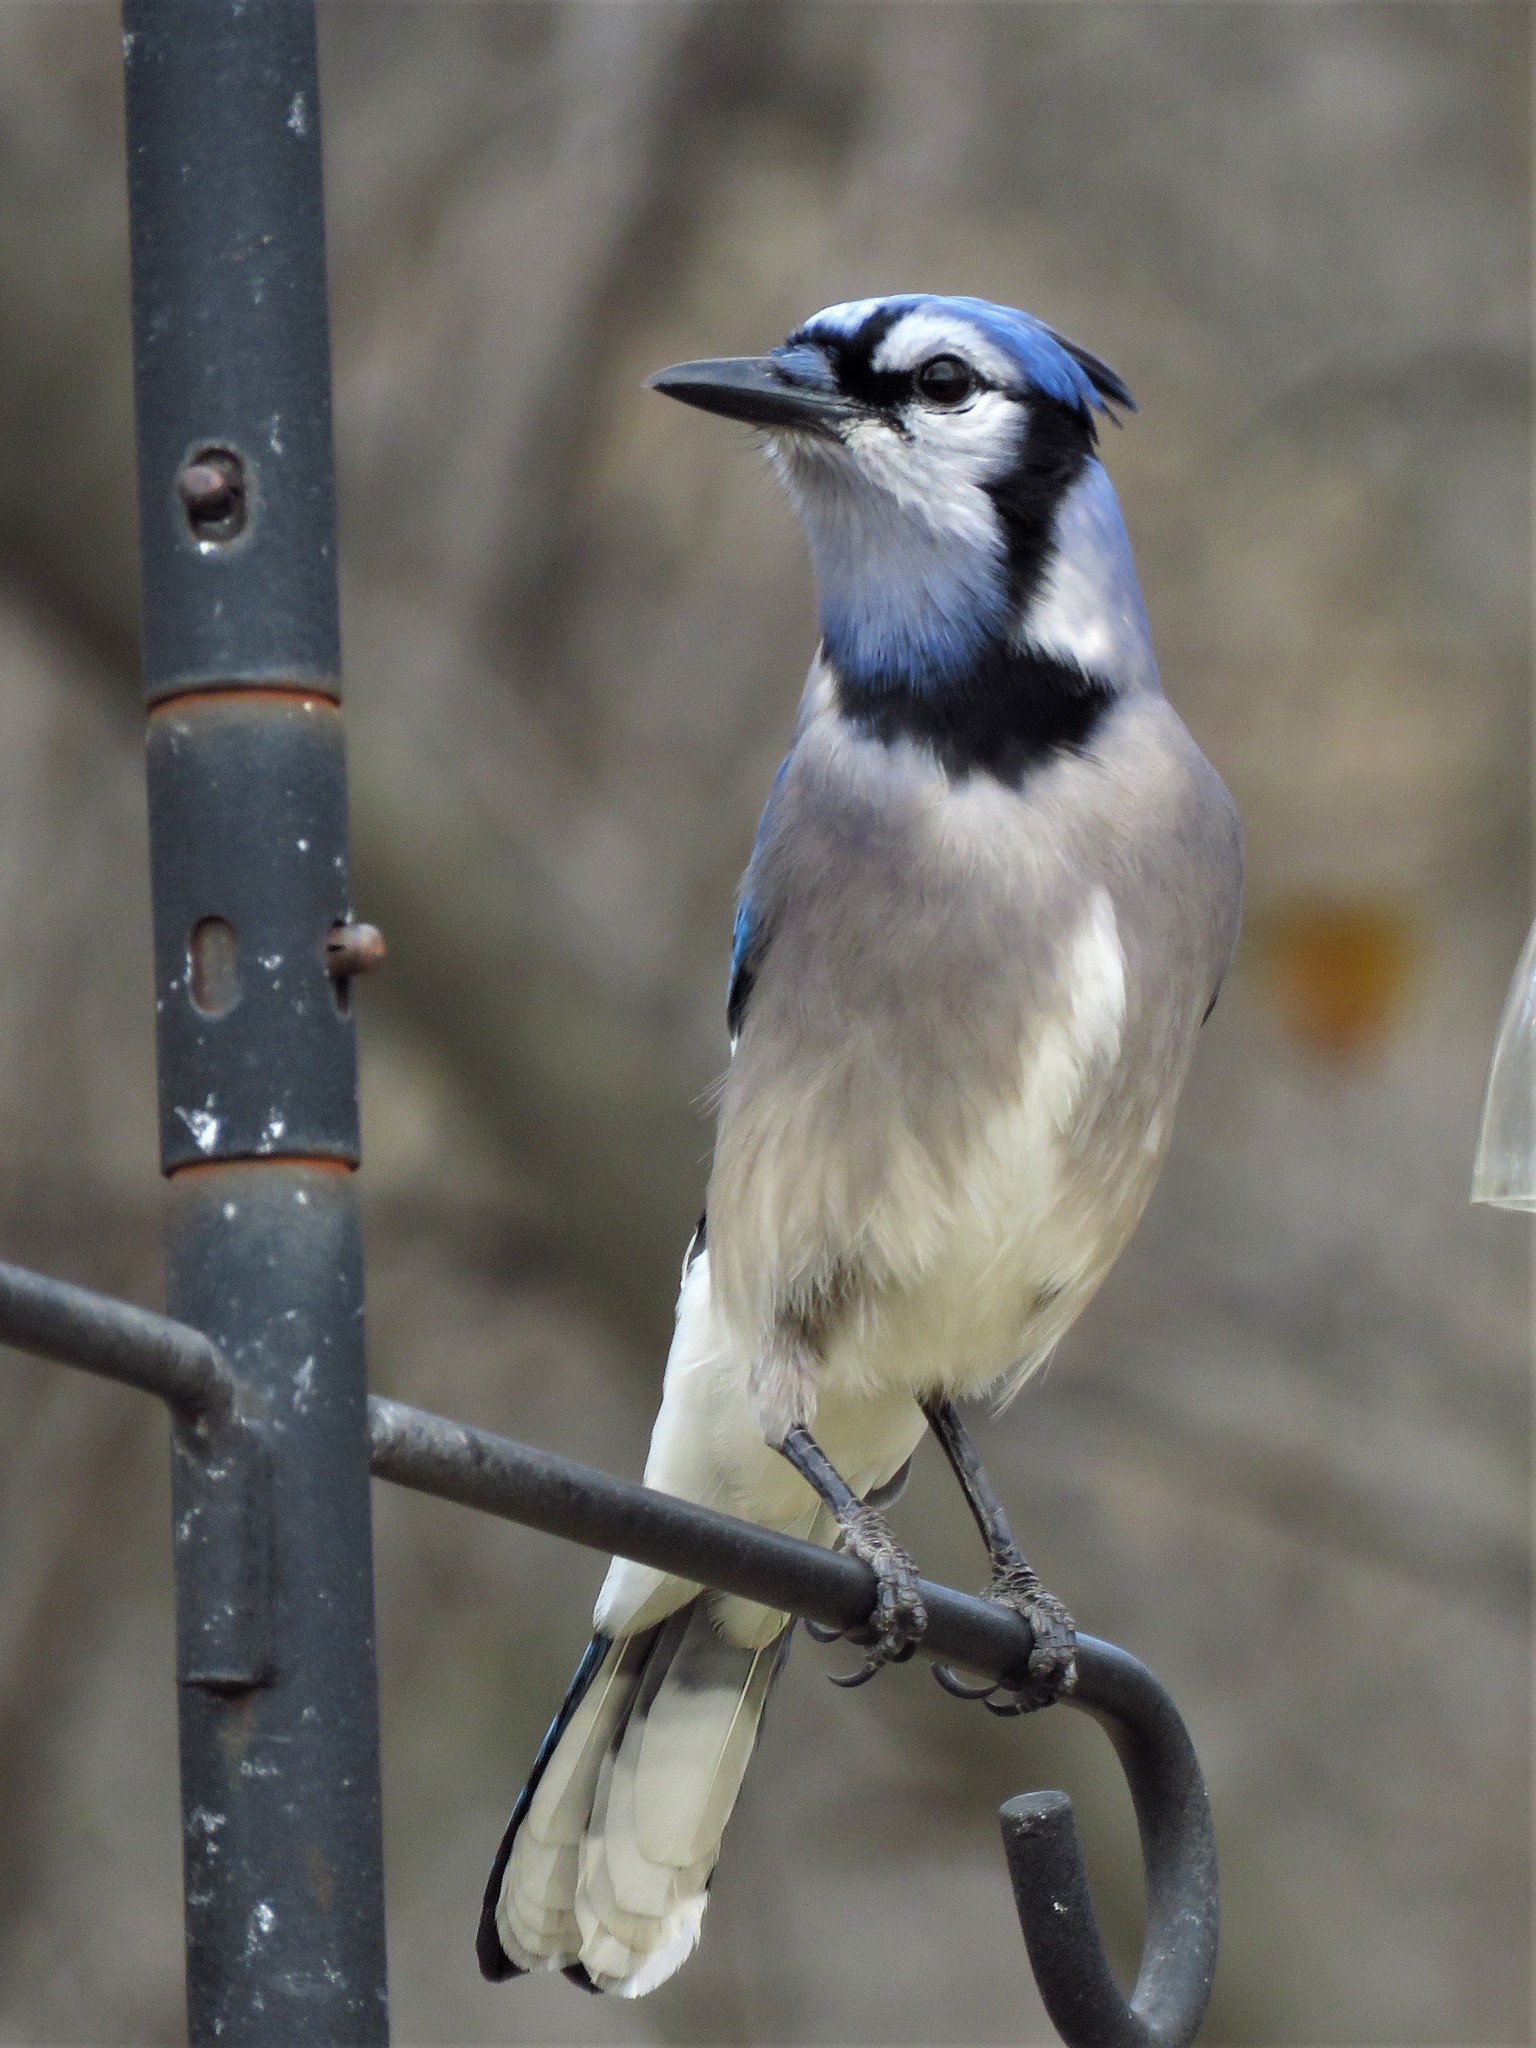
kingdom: Animalia
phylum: Chordata
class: Aves
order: Passeriformes
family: Corvidae
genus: Cyanocitta
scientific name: Cyanocitta cristata
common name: Blue jay
